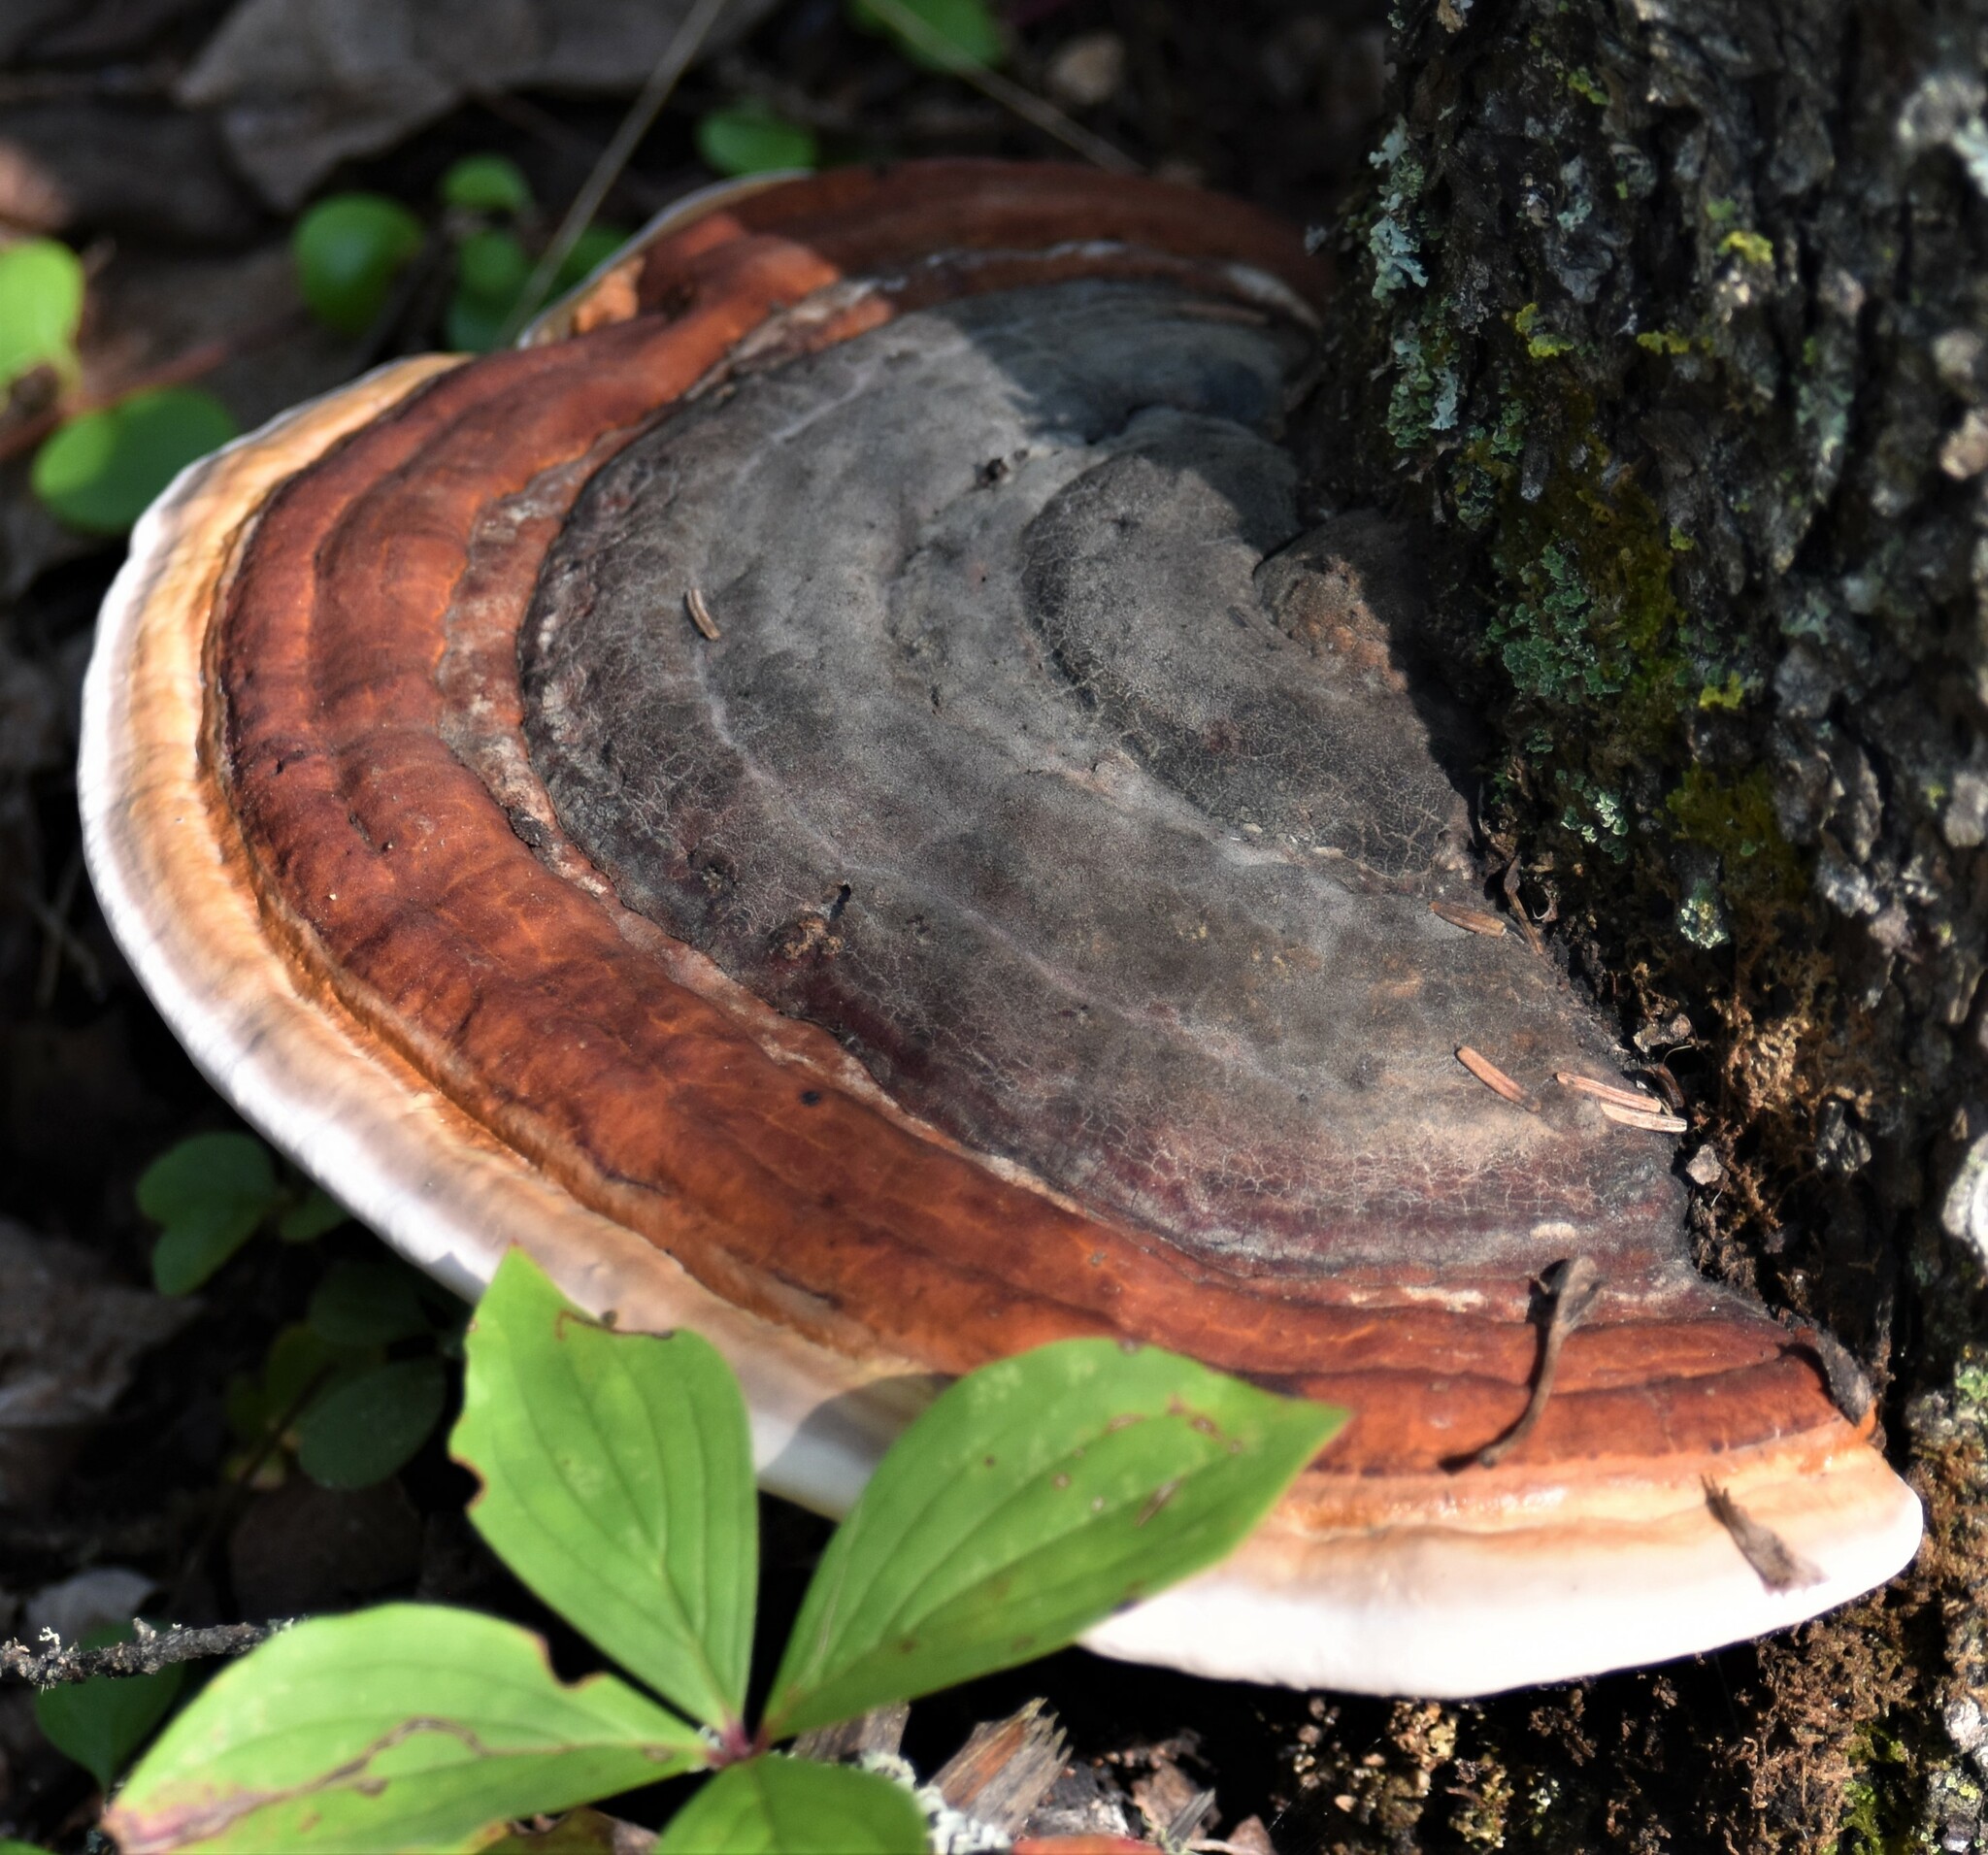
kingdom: Fungi
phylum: Basidiomycota
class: Agaricomycetes
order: Polyporales
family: Fomitopsidaceae
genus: Fomitopsis
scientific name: Fomitopsis mounceae
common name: Northern red belt
